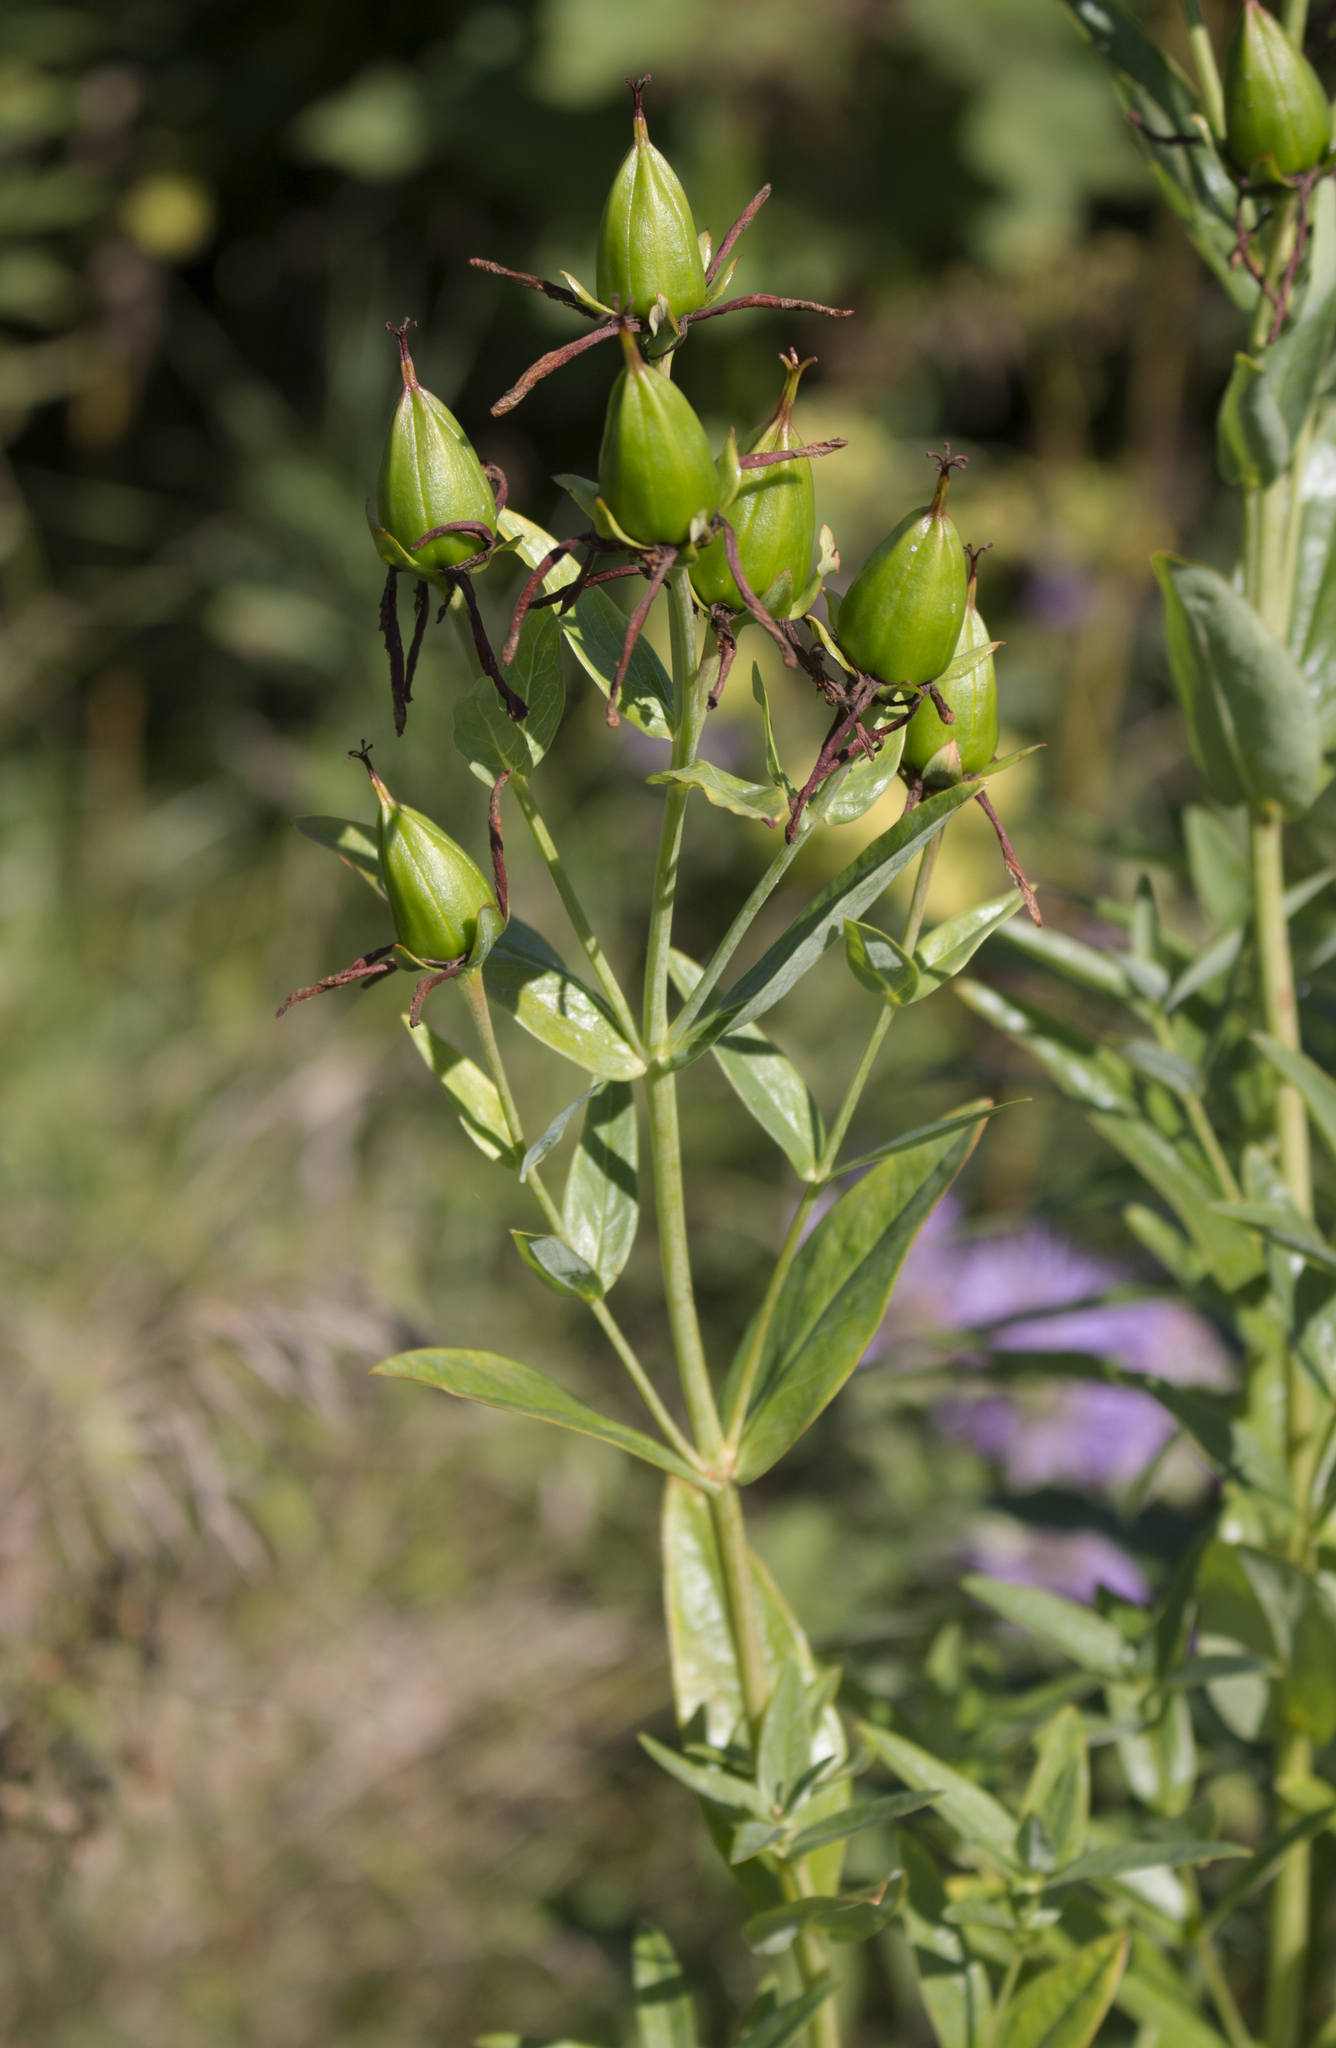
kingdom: Plantae
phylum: Tracheophyta
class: Magnoliopsida
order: Malpighiales
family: Hypericaceae
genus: Hypericum
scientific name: Hypericum ascyron
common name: Giant st. john's-wort
